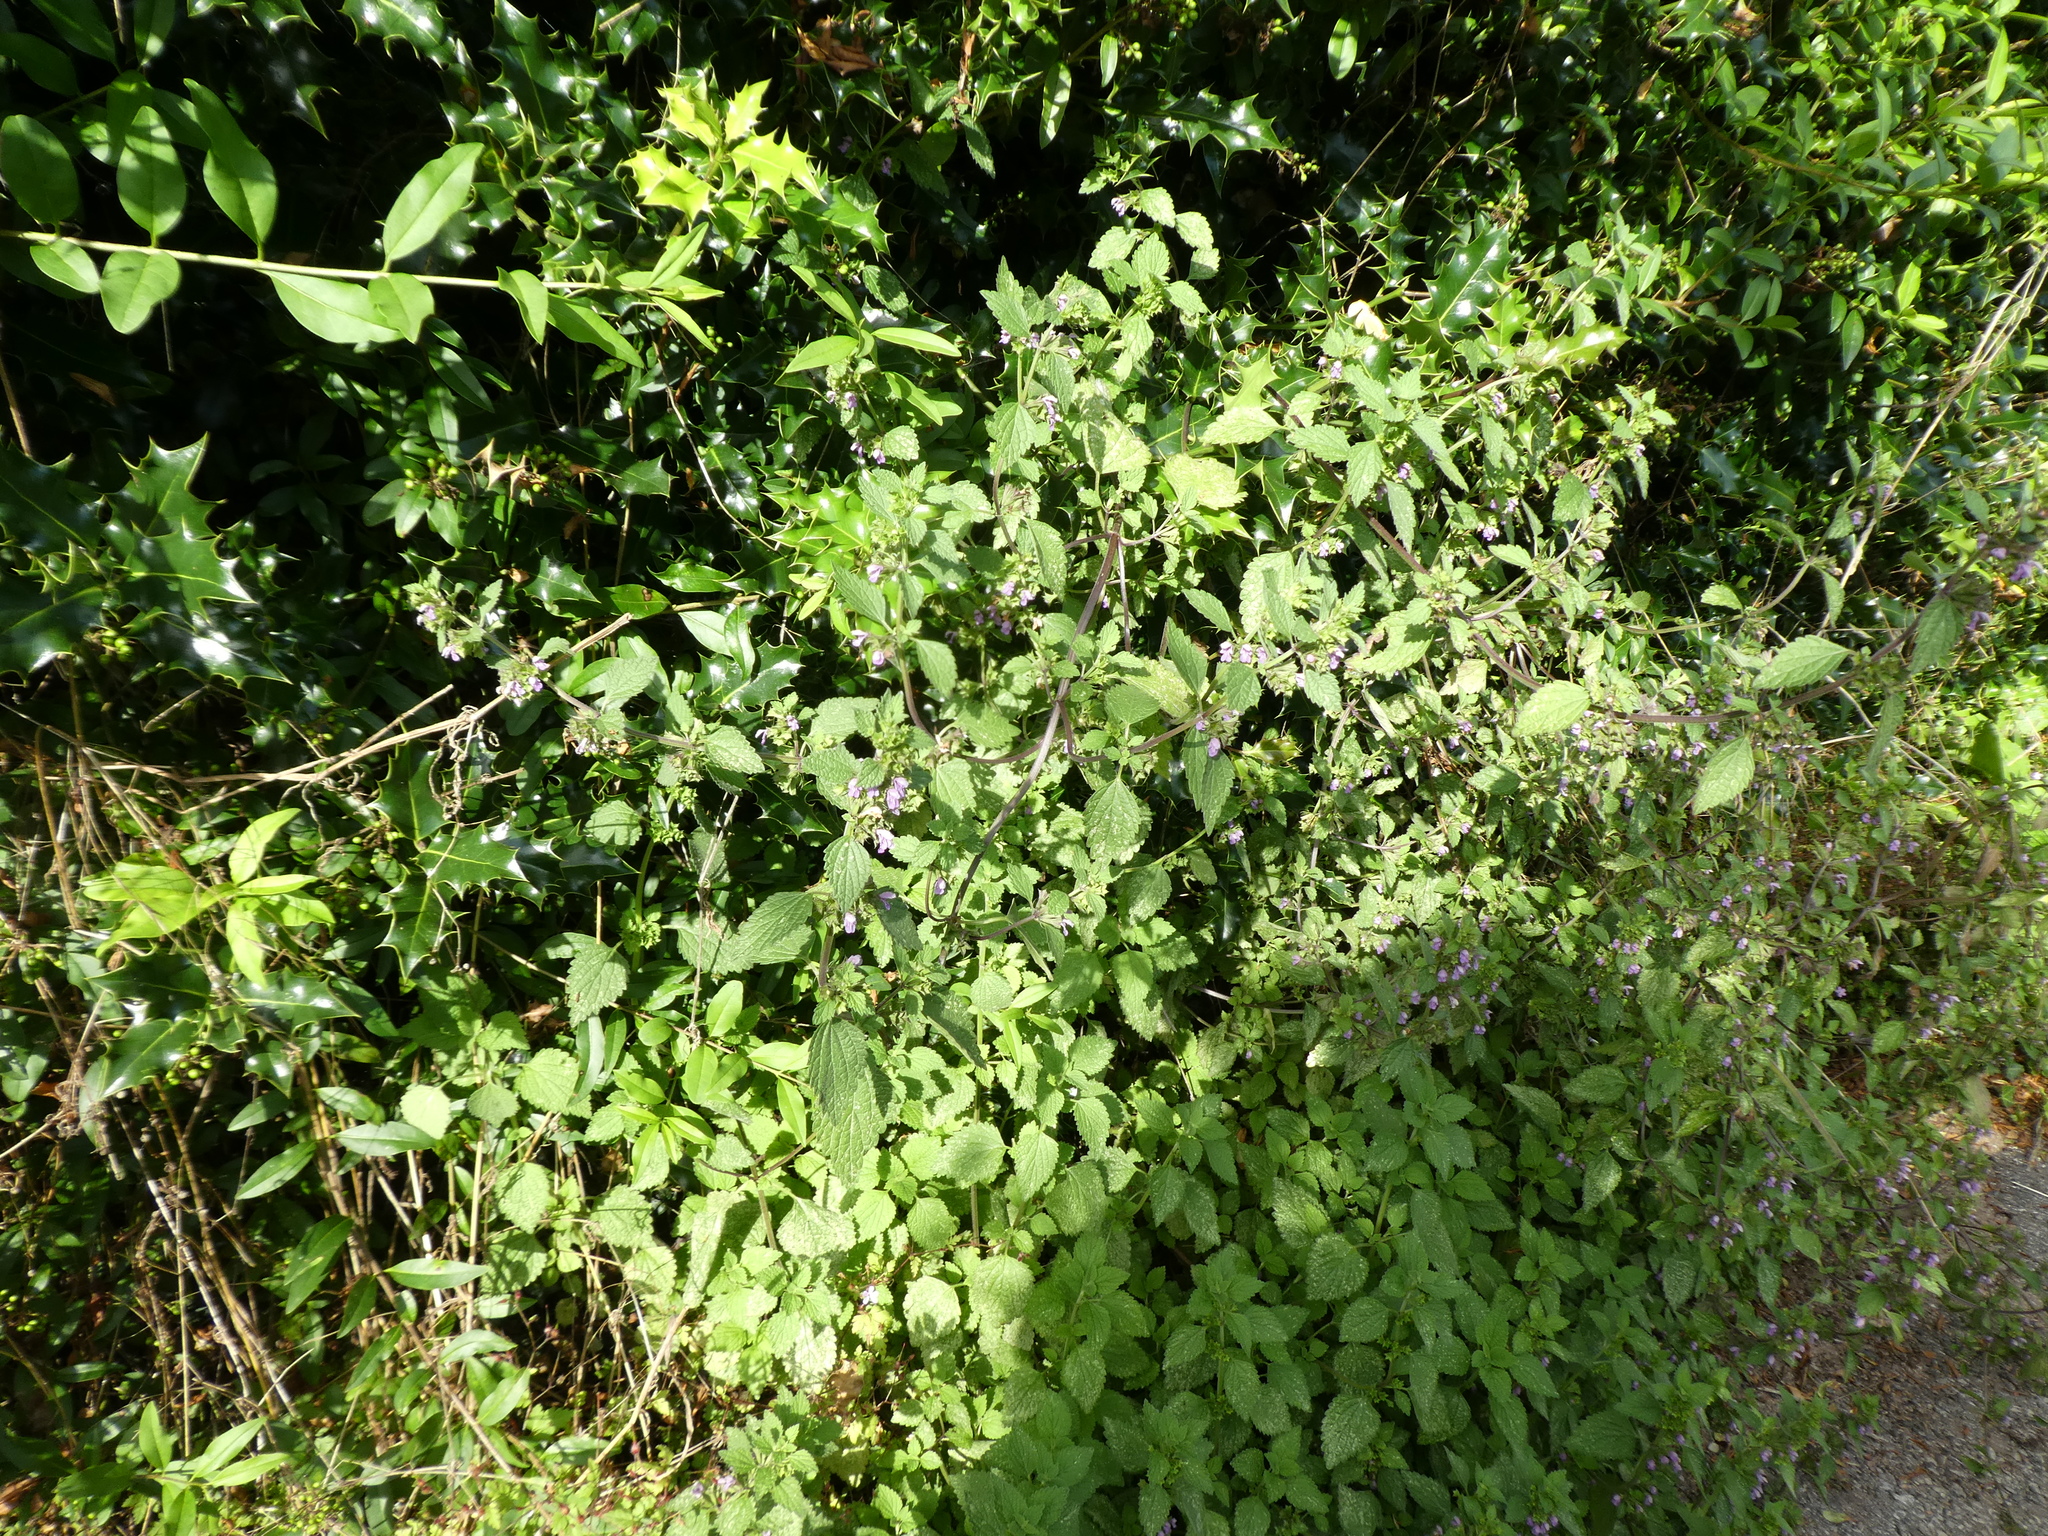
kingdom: Plantae
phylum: Tracheophyta
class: Magnoliopsida
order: Lamiales
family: Lamiaceae
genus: Ballota
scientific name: Ballota nigra
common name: Black horehound
